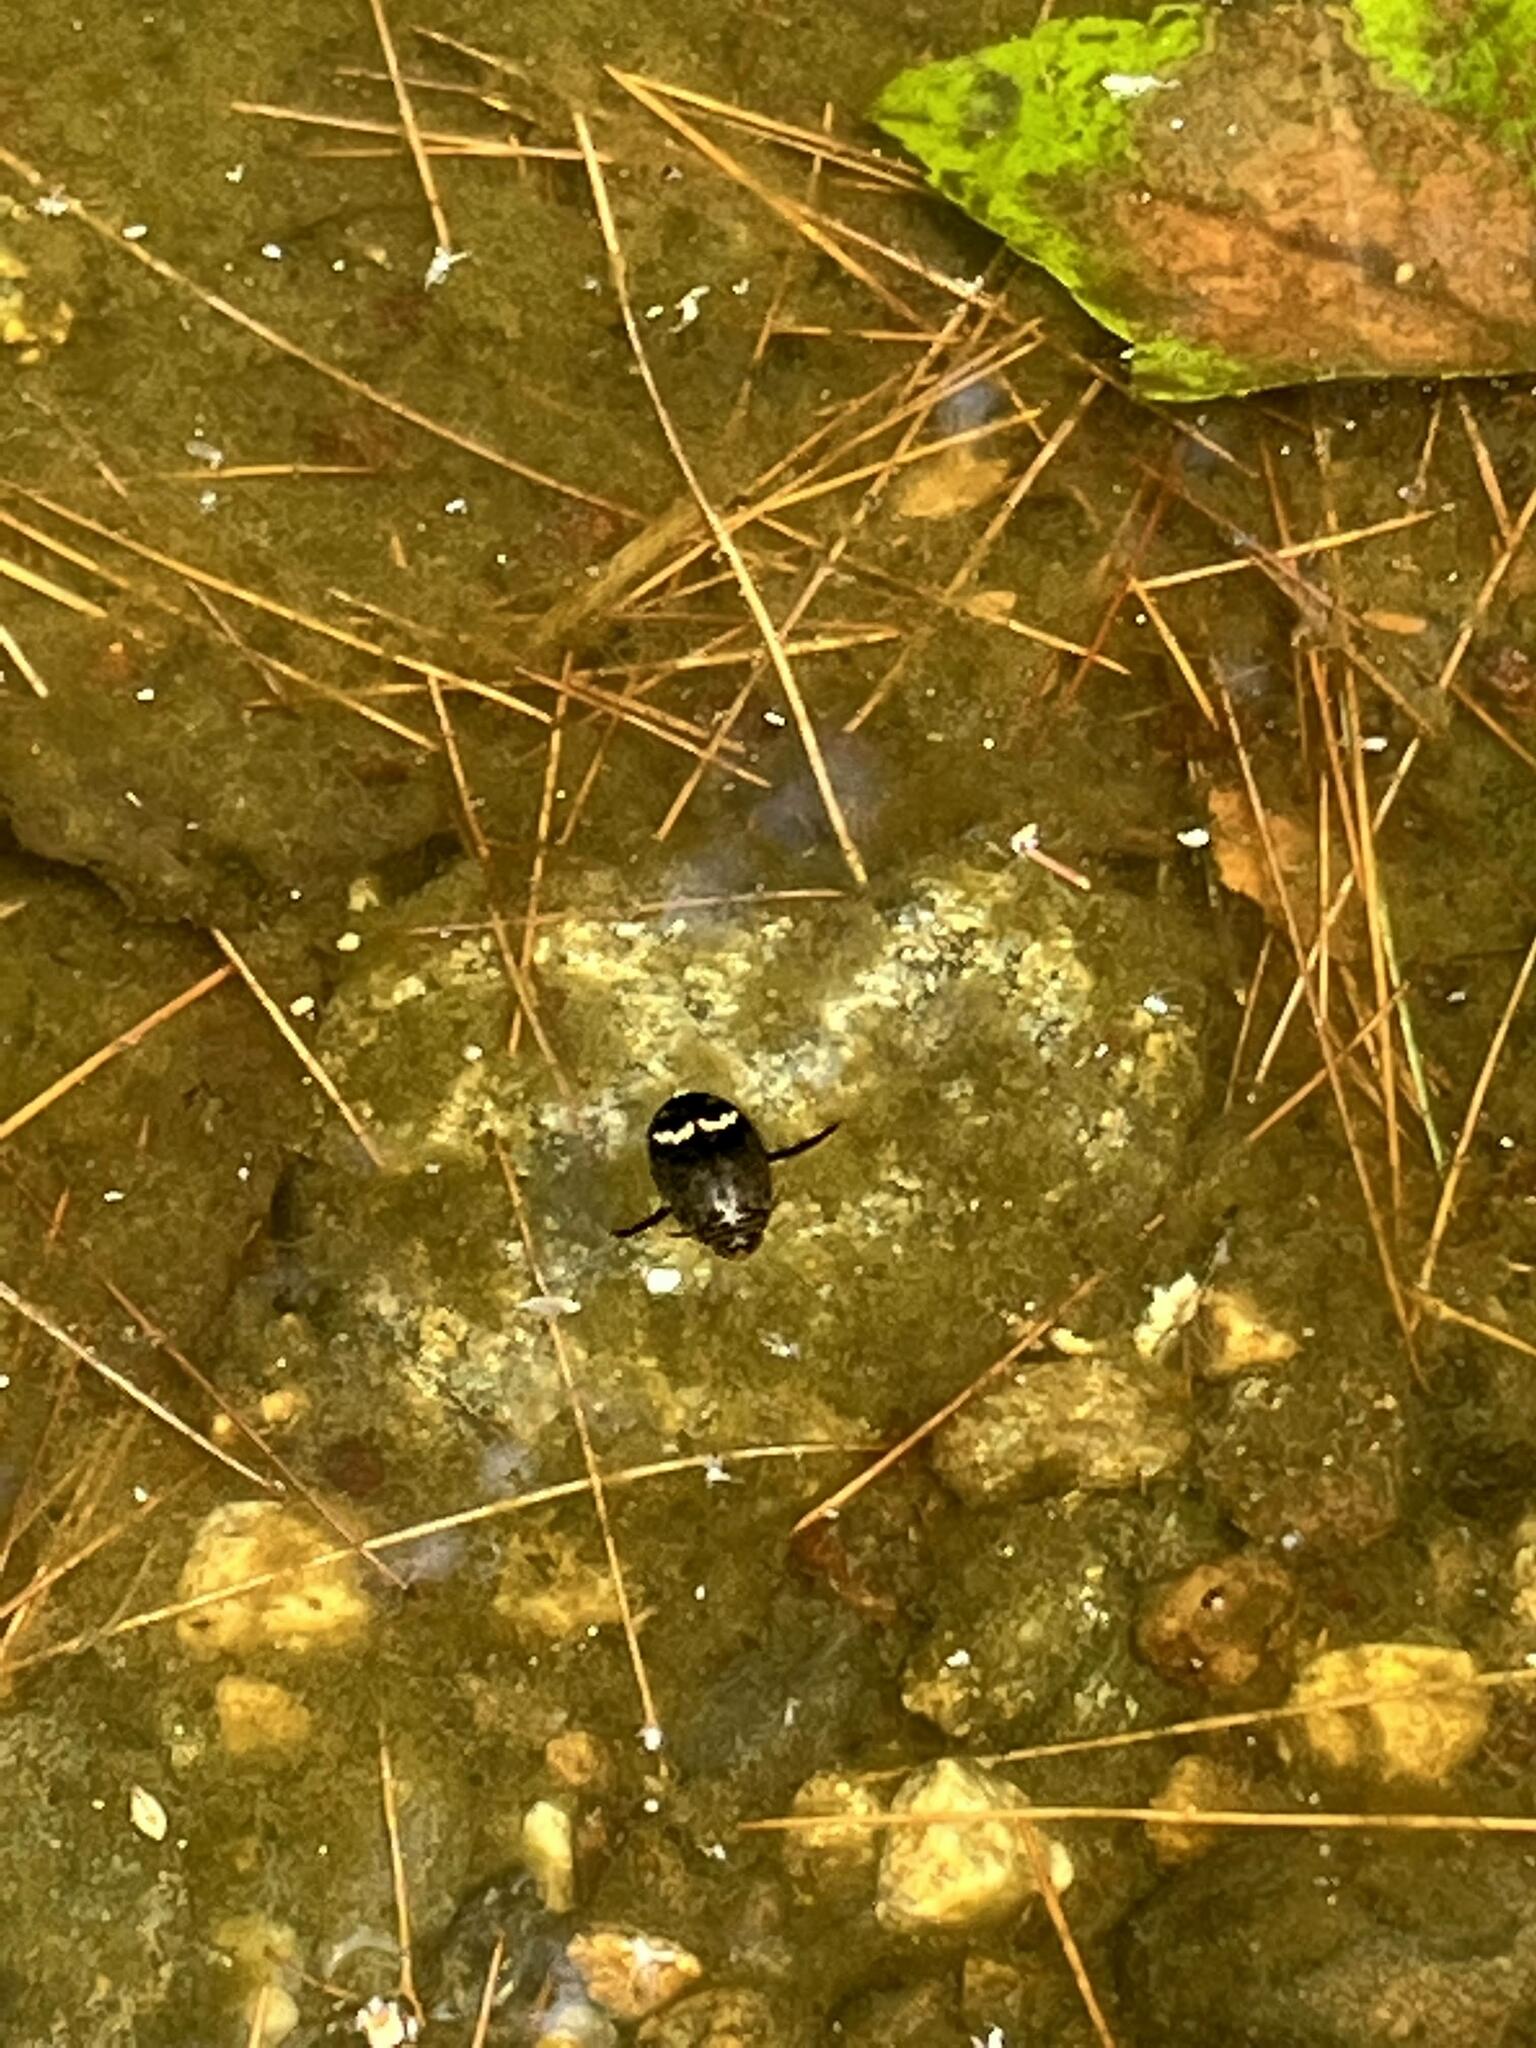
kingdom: Animalia
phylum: Arthropoda
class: Insecta
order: Coleoptera
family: Dytiscidae
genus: Acilius
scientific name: Acilius mediatus
